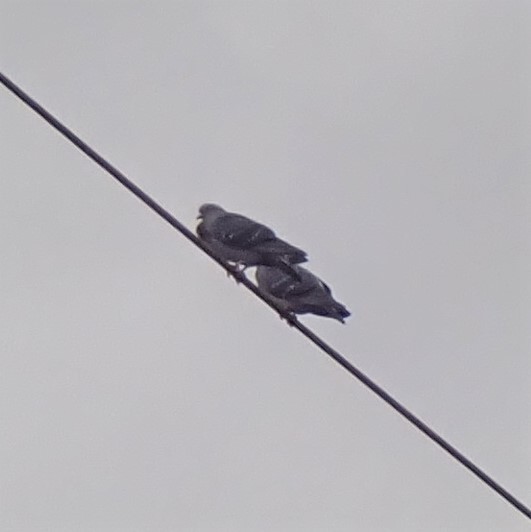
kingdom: Animalia
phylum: Chordata
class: Aves
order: Columbiformes
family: Columbidae
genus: Columba
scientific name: Columba livia
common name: Rock pigeon
